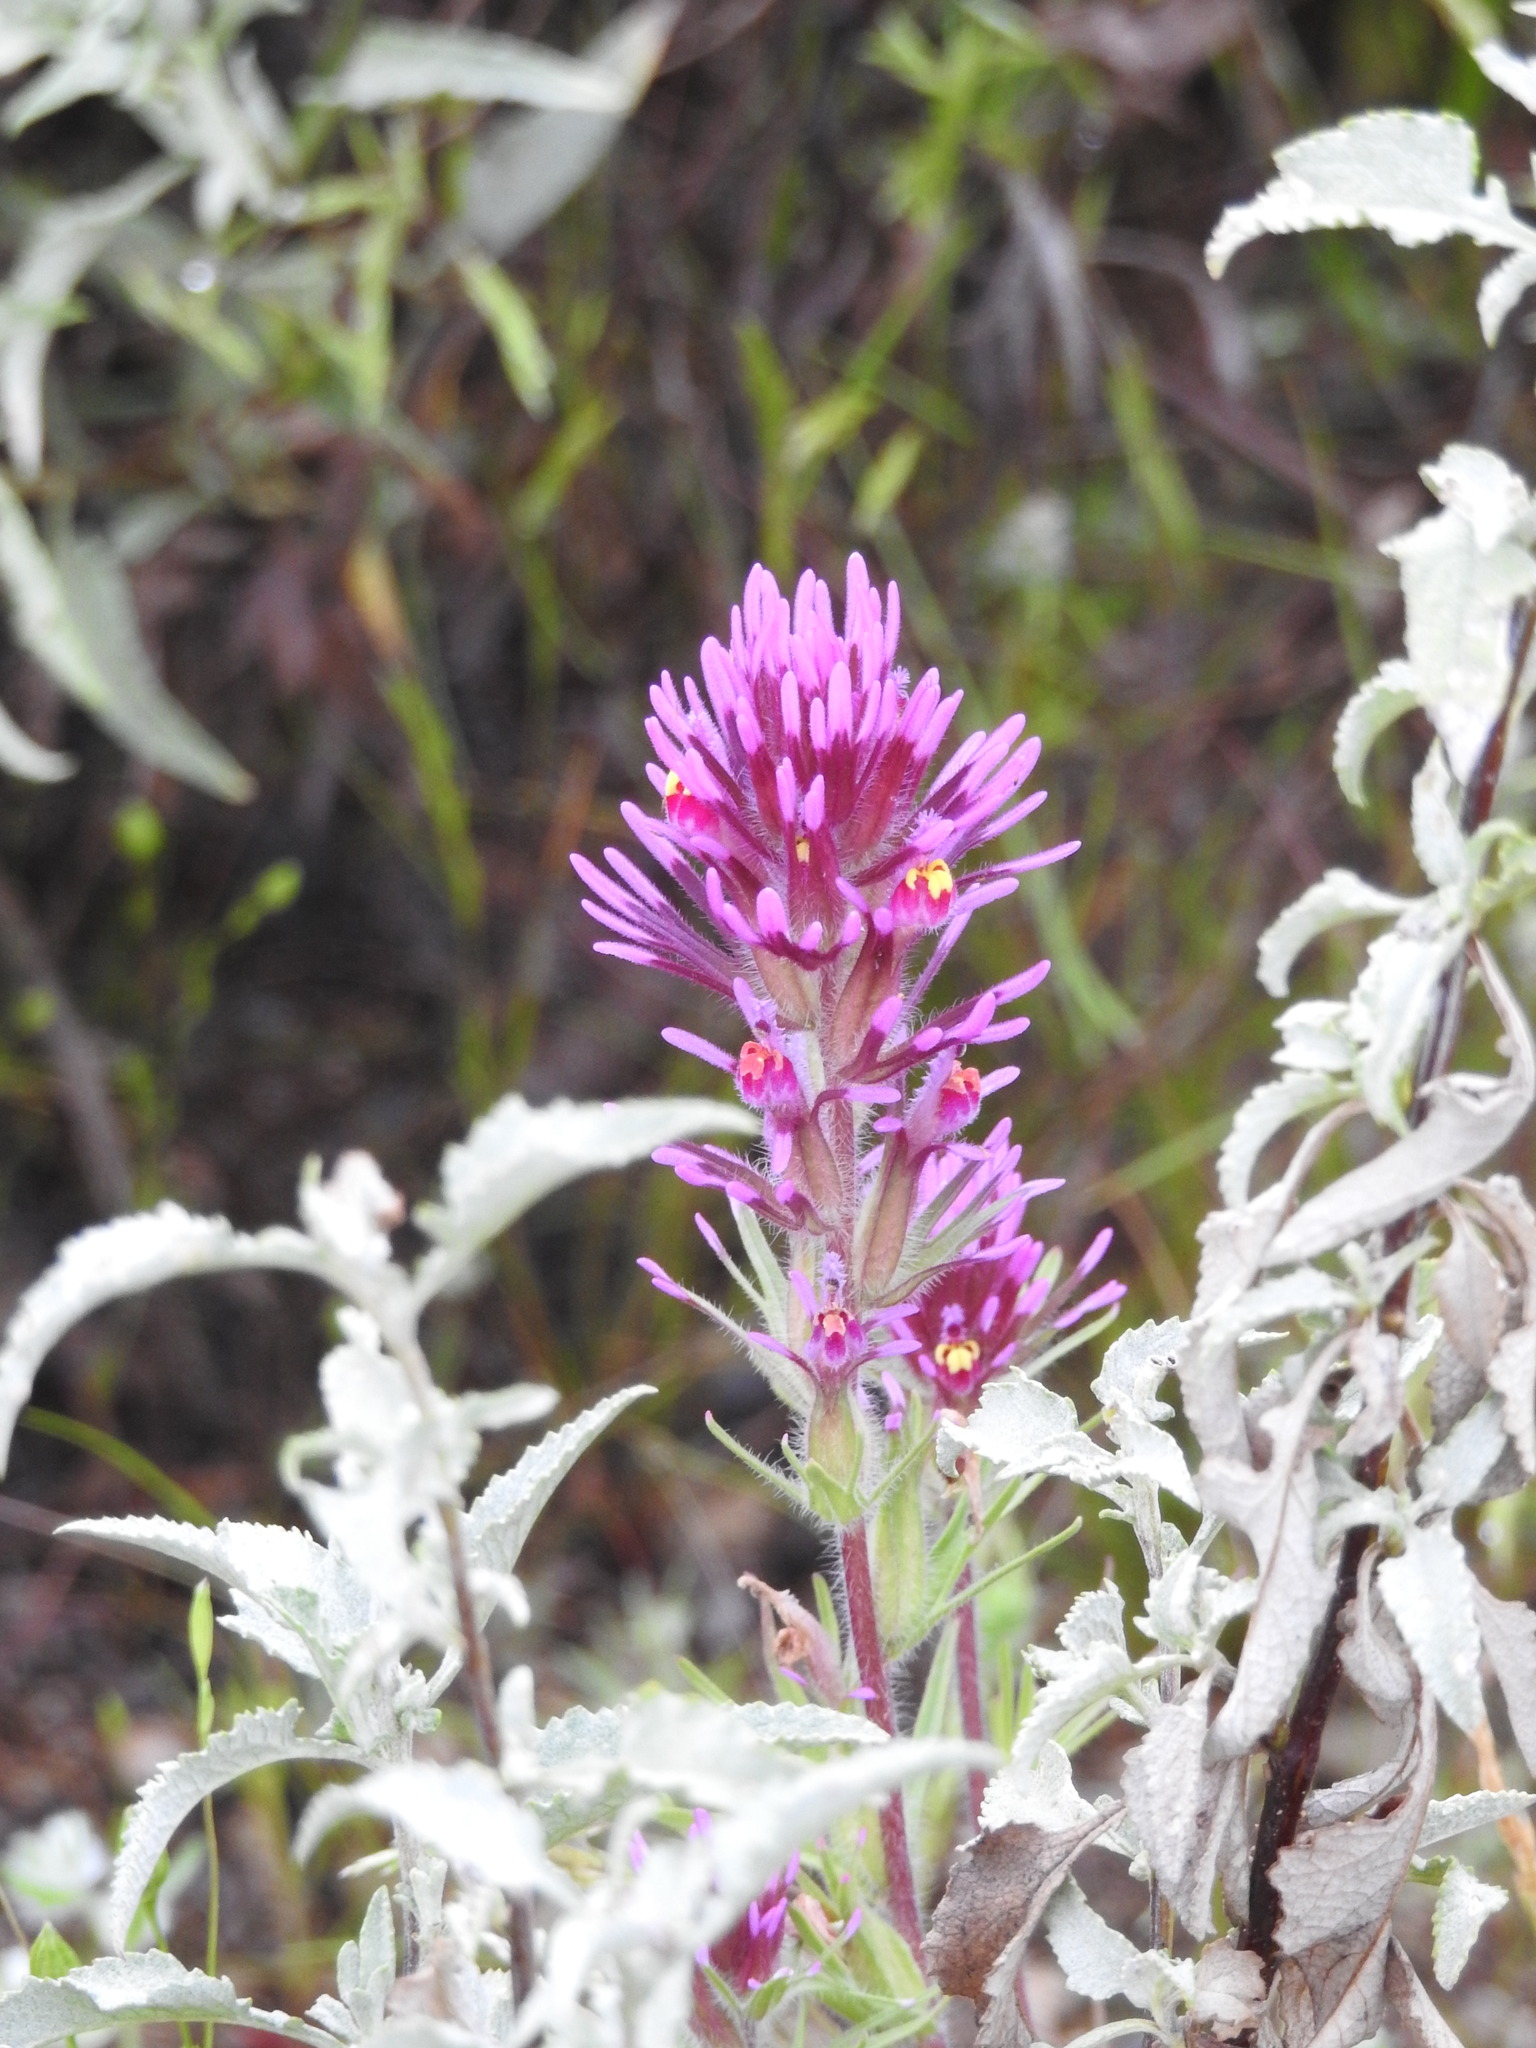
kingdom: Plantae
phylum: Tracheophyta
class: Magnoliopsida
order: Lamiales
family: Orobanchaceae
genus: Castilleja
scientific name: Castilleja exserta
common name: Purple owl-clover
